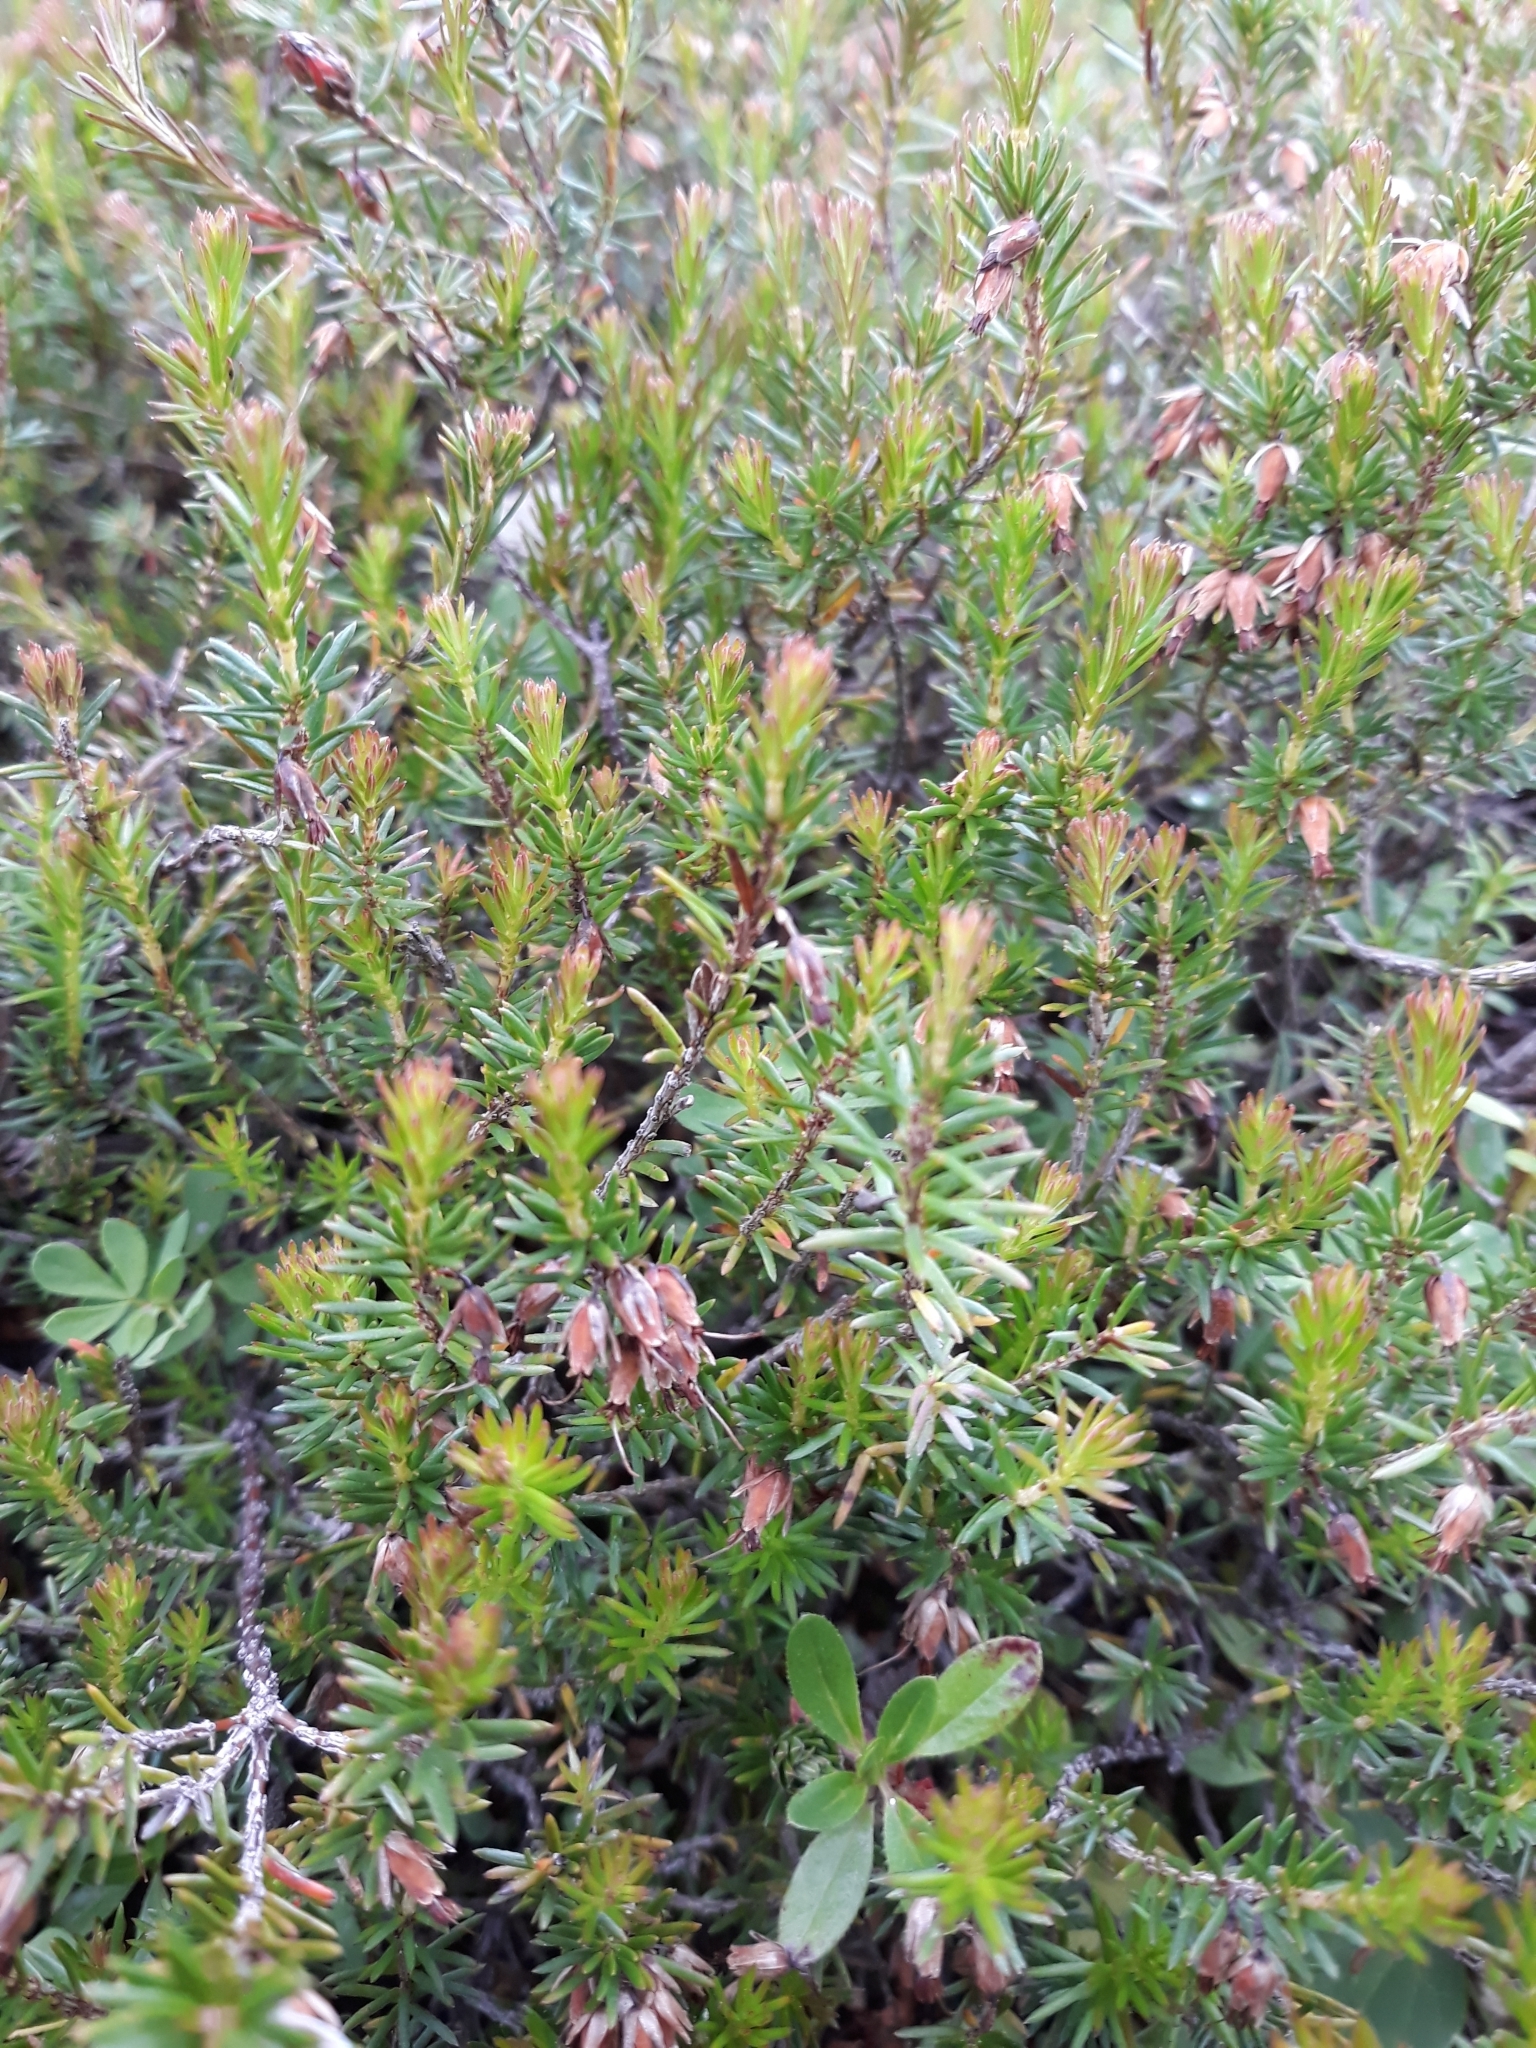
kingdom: Plantae
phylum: Tracheophyta
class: Magnoliopsida
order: Ericales
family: Ericaceae
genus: Erica
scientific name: Erica carnea
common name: Winter heath
